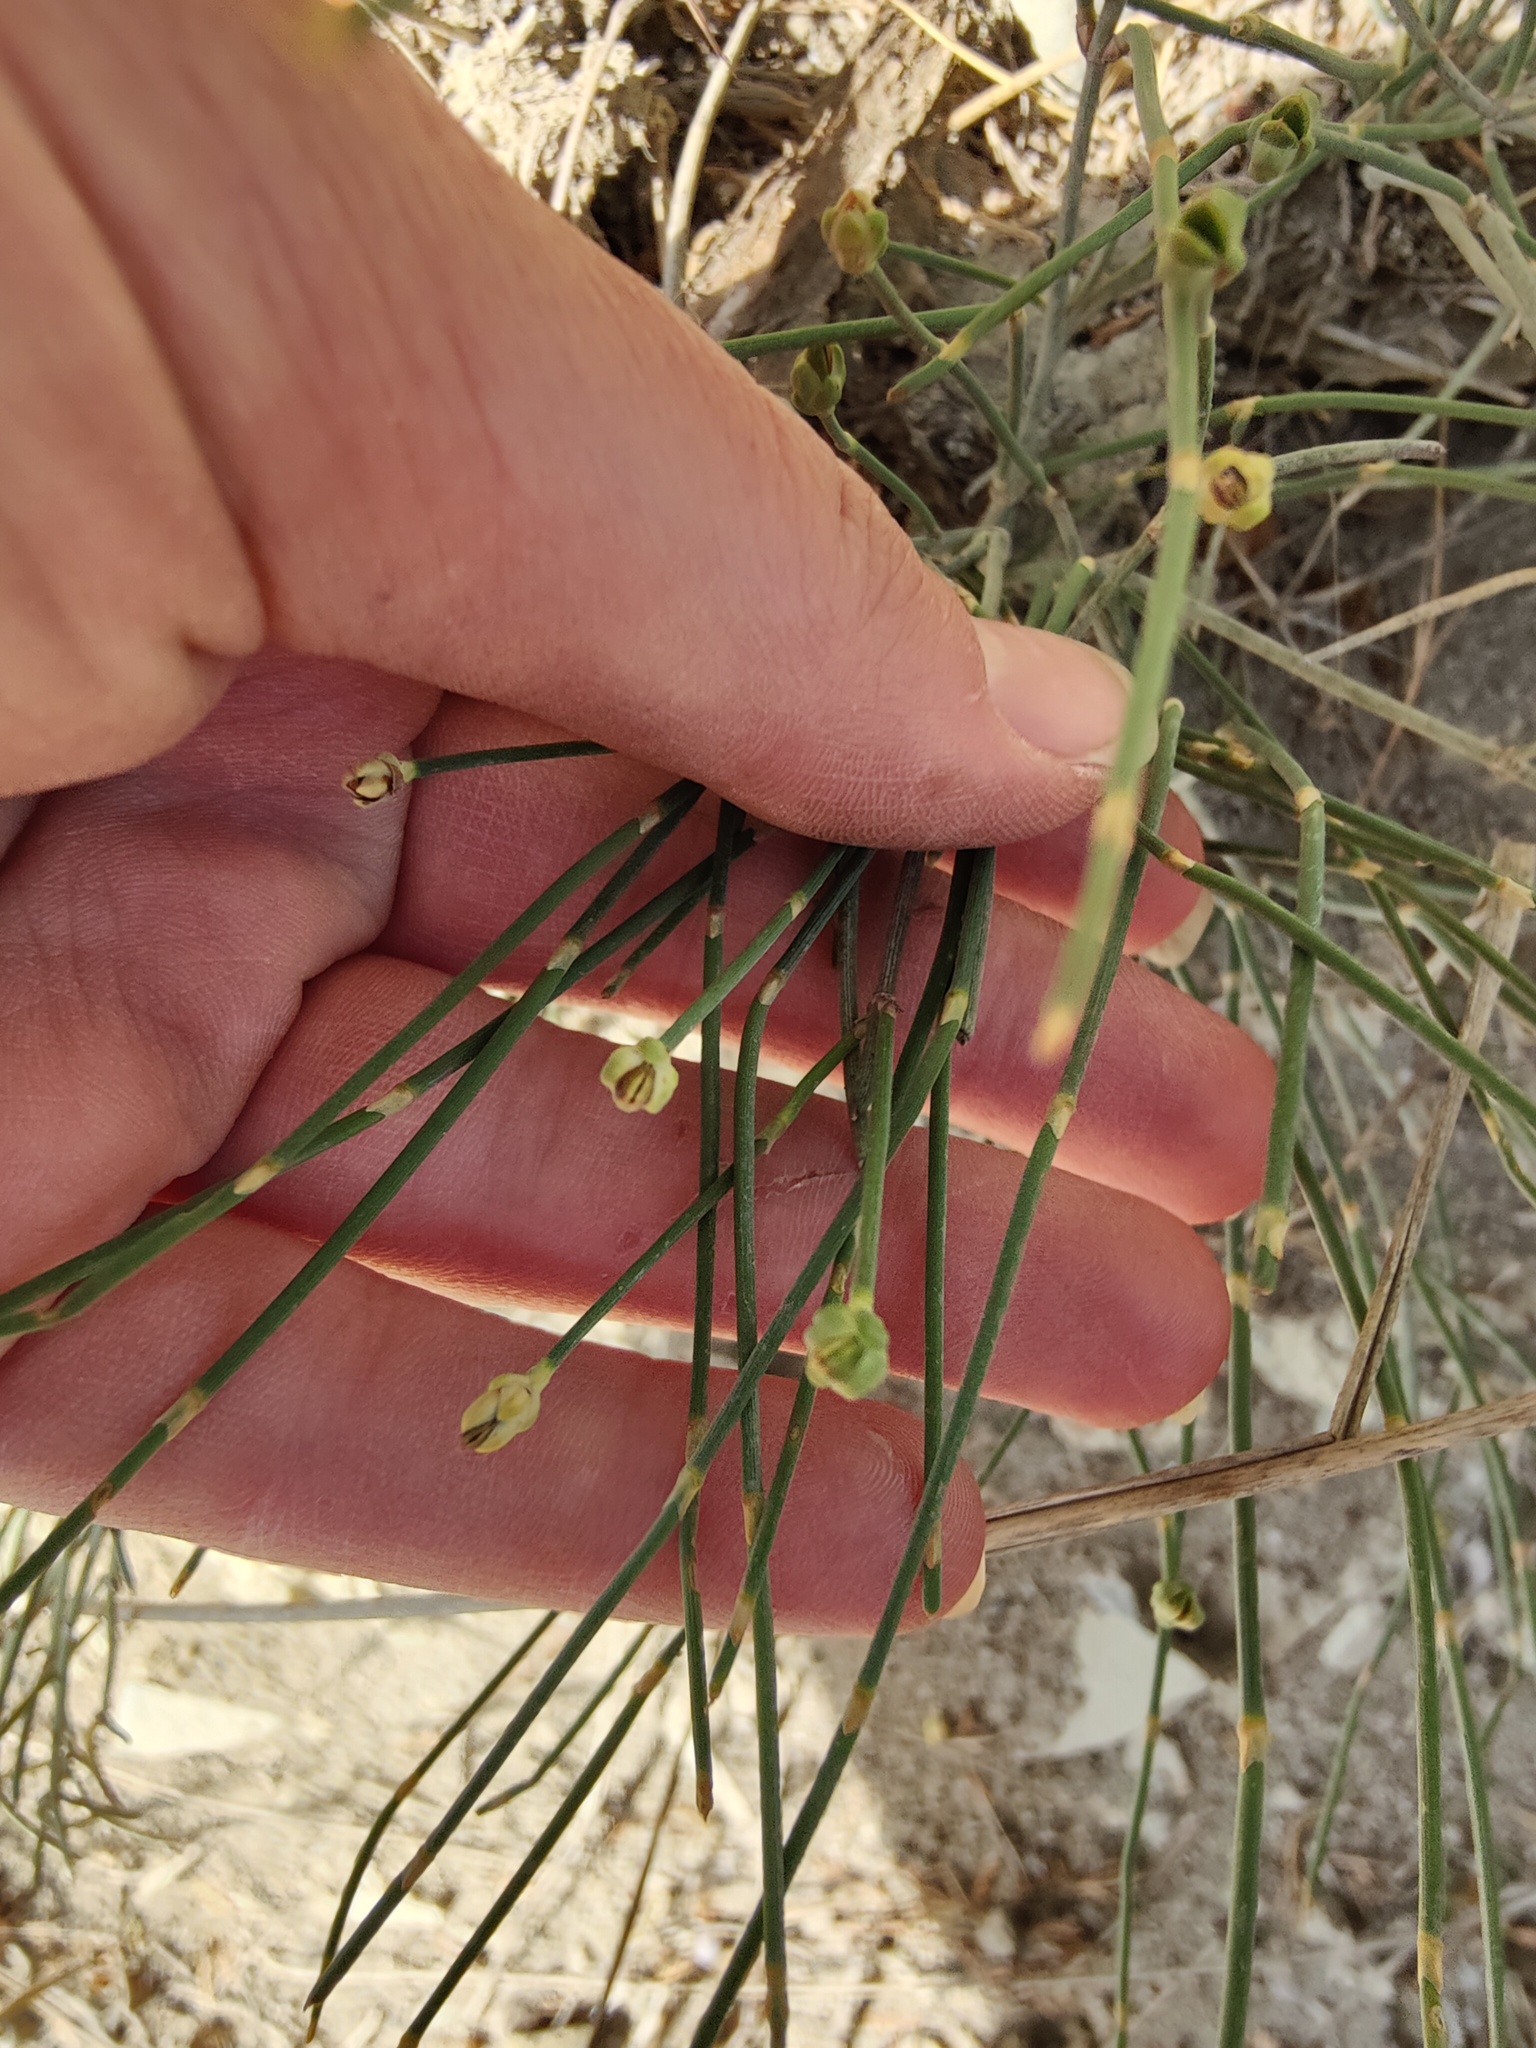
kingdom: Plantae
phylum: Tracheophyta
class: Gnetopsida
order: Ephedrales
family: Ephedraceae
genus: Ephedra
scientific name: Ephedra distachya
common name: Sea grape
